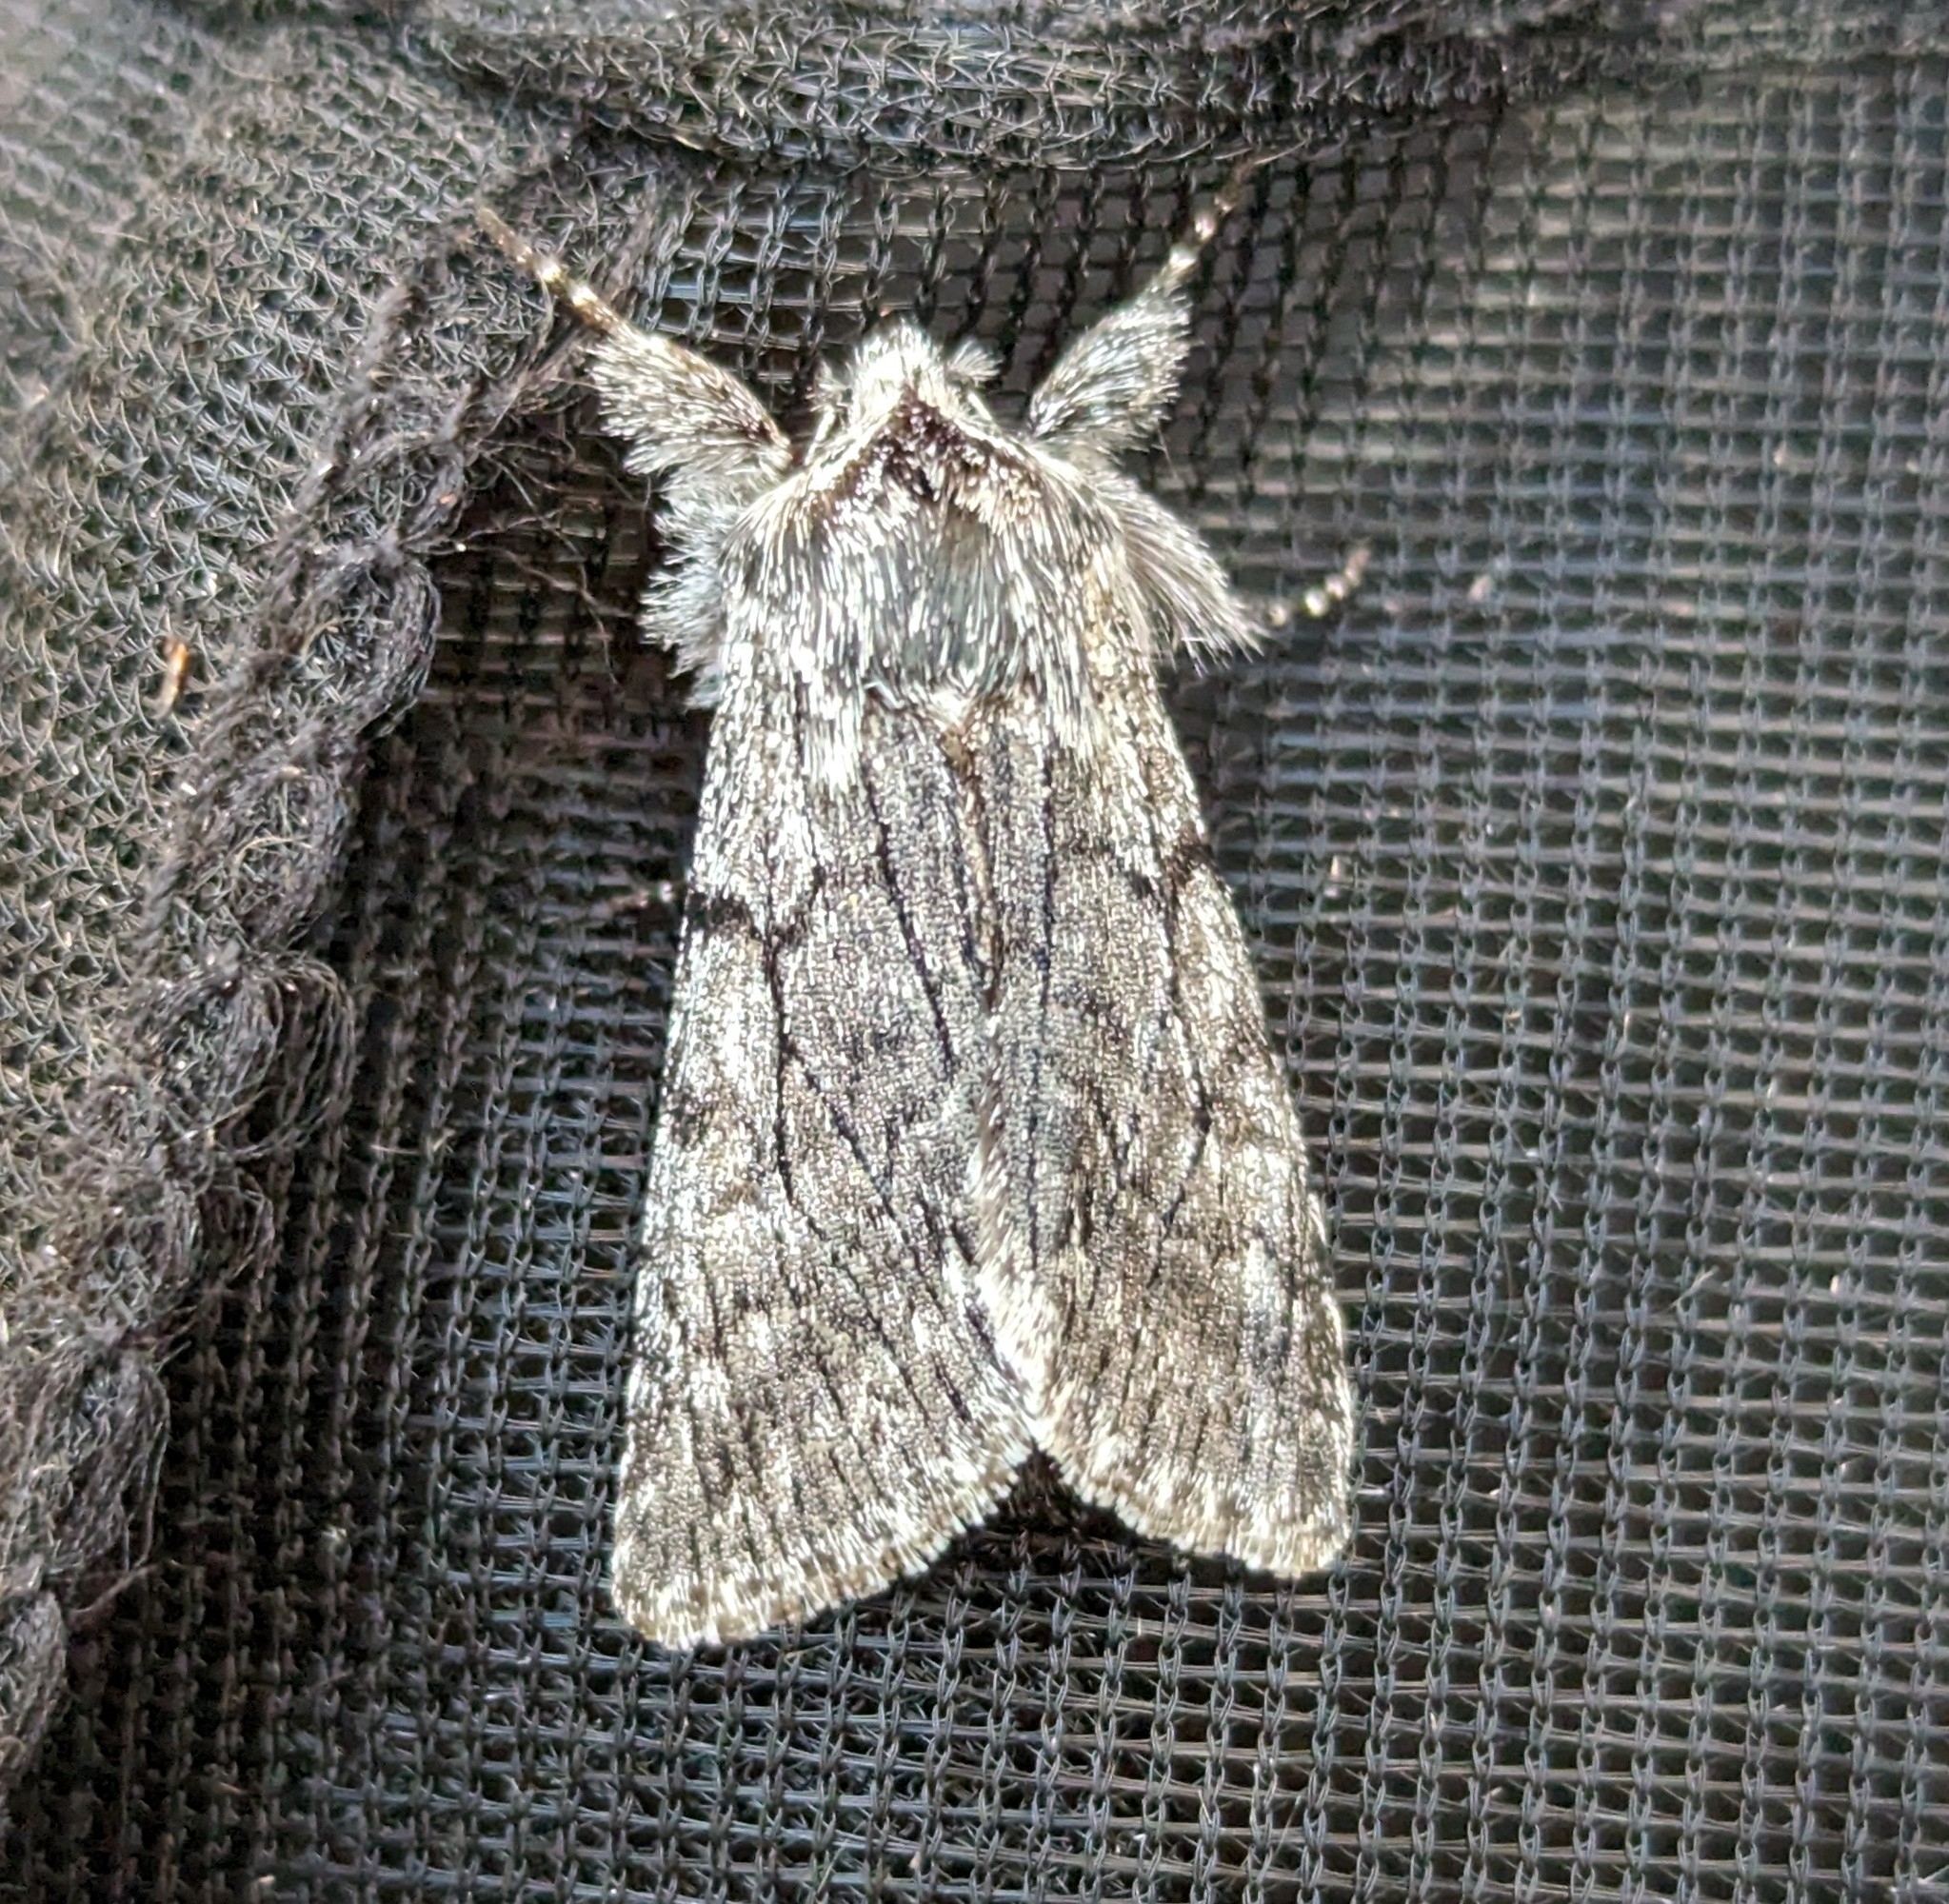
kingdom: Animalia
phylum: Arthropoda
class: Insecta
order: Lepidoptera
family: Noctuidae
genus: Pleromelloida
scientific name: Pleromelloida conserta
